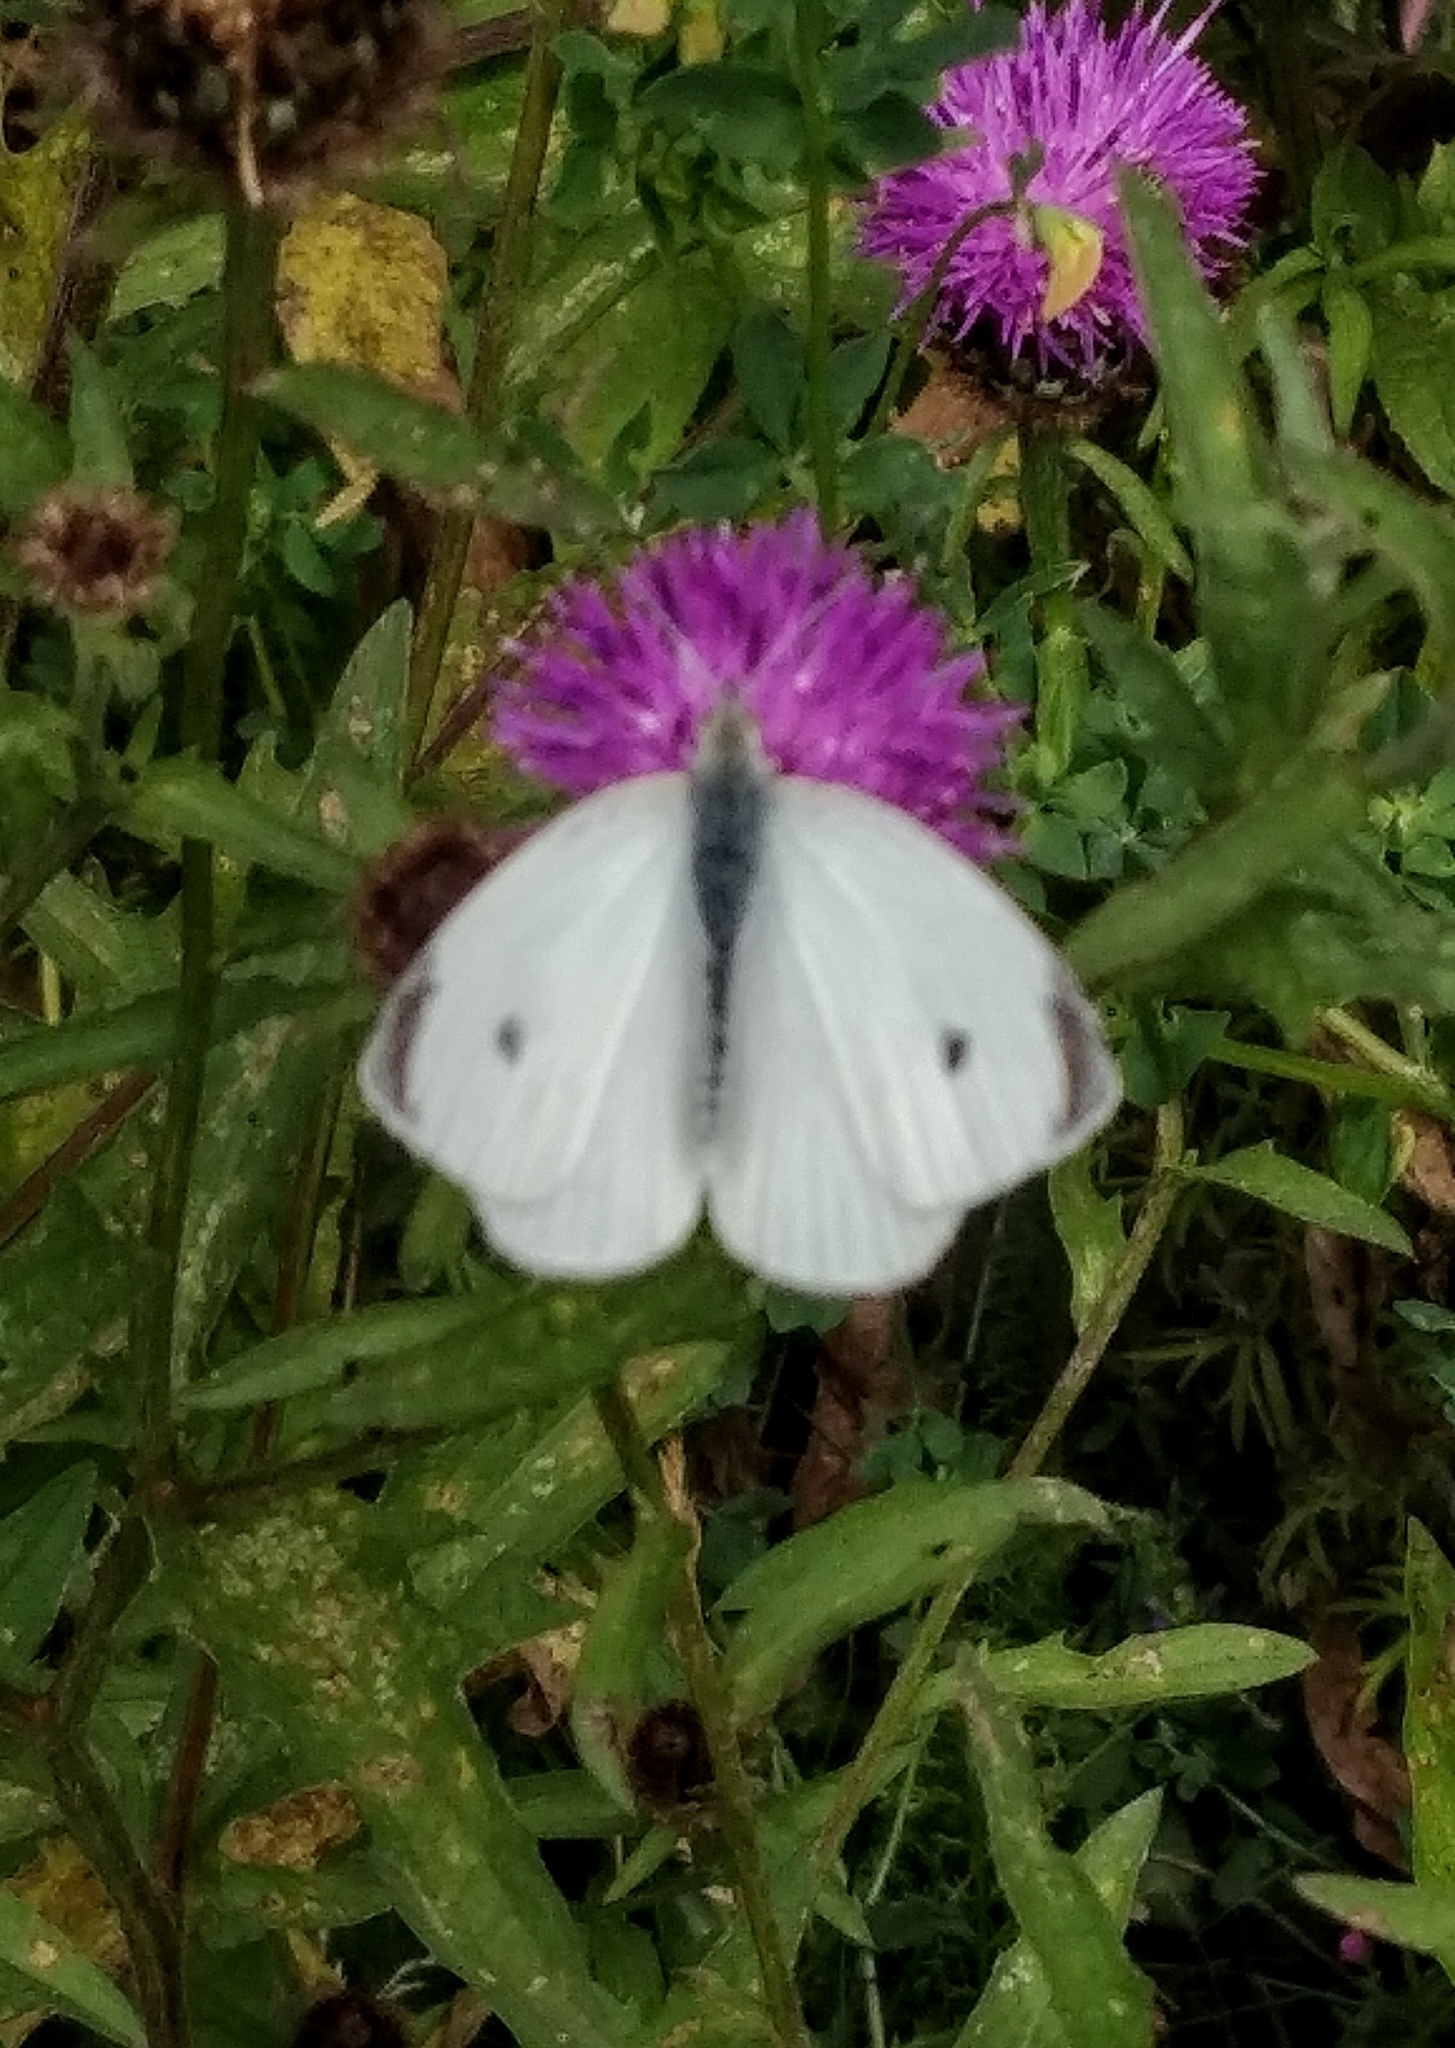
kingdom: Animalia
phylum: Arthropoda
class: Insecta
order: Lepidoptera
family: Pieridae
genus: Pieris
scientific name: Pieris rapae
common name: Small white
